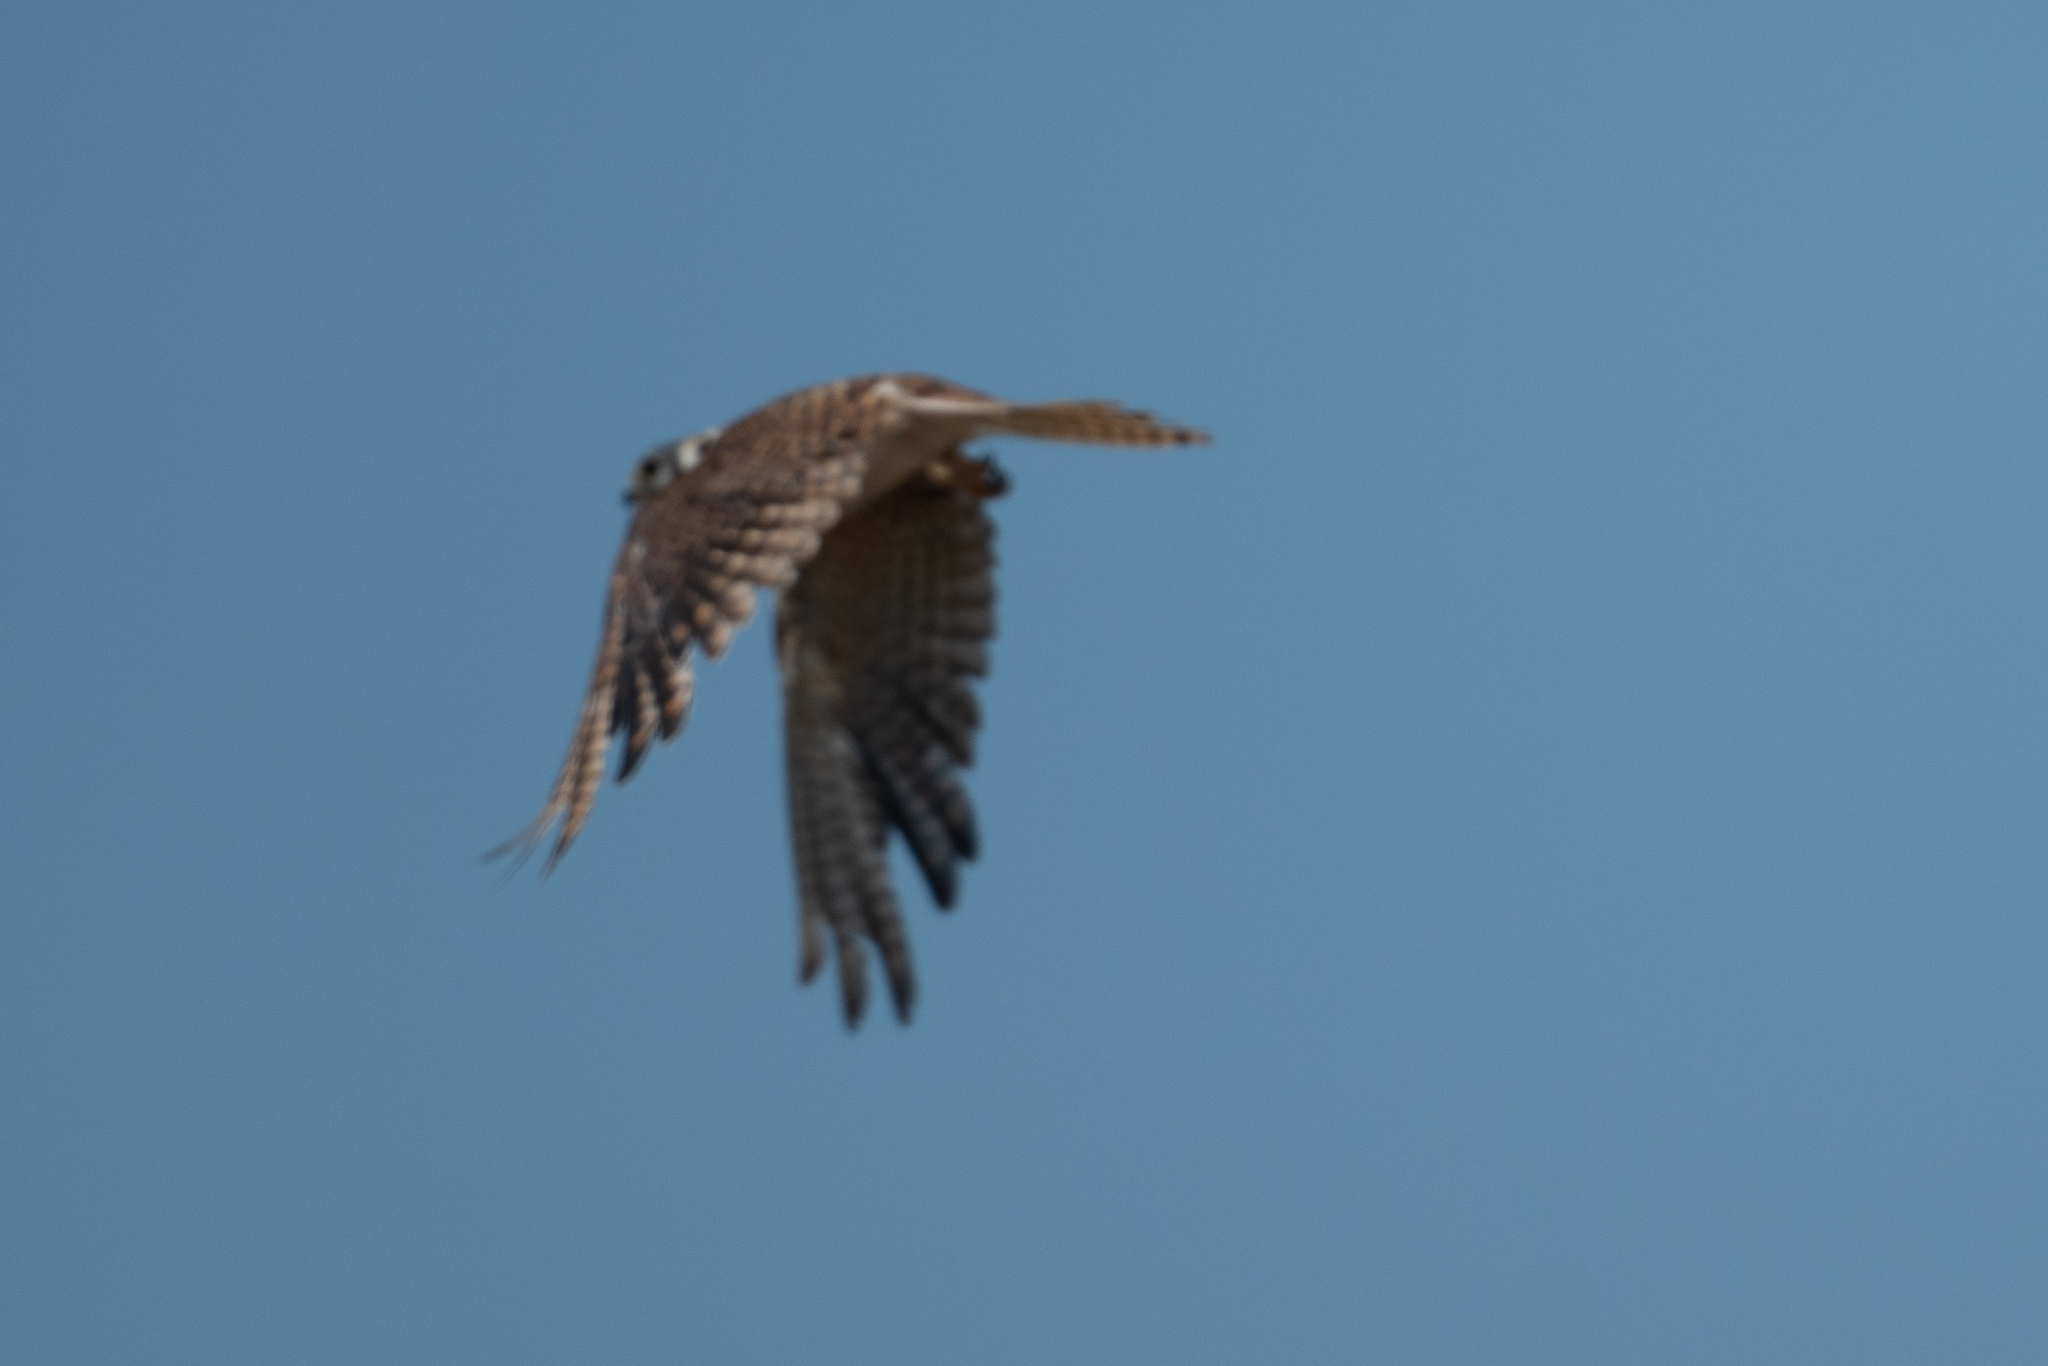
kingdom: Animalia
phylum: Chordata
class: Aves
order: Falconiformes
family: Falconidae
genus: Falco
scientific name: Falco sparverius
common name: American kestrel
